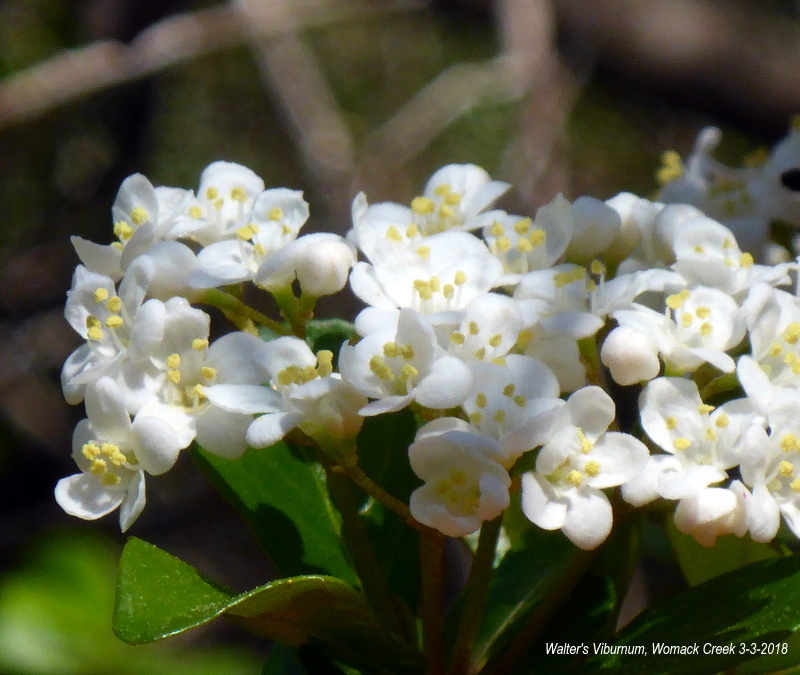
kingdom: Plantae
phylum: Tracheophyta
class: Magnoliopsida
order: Dipsacales
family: Viburnaceae
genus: Viburnum
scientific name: Viburnum obovatum
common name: Walter's viburnum
